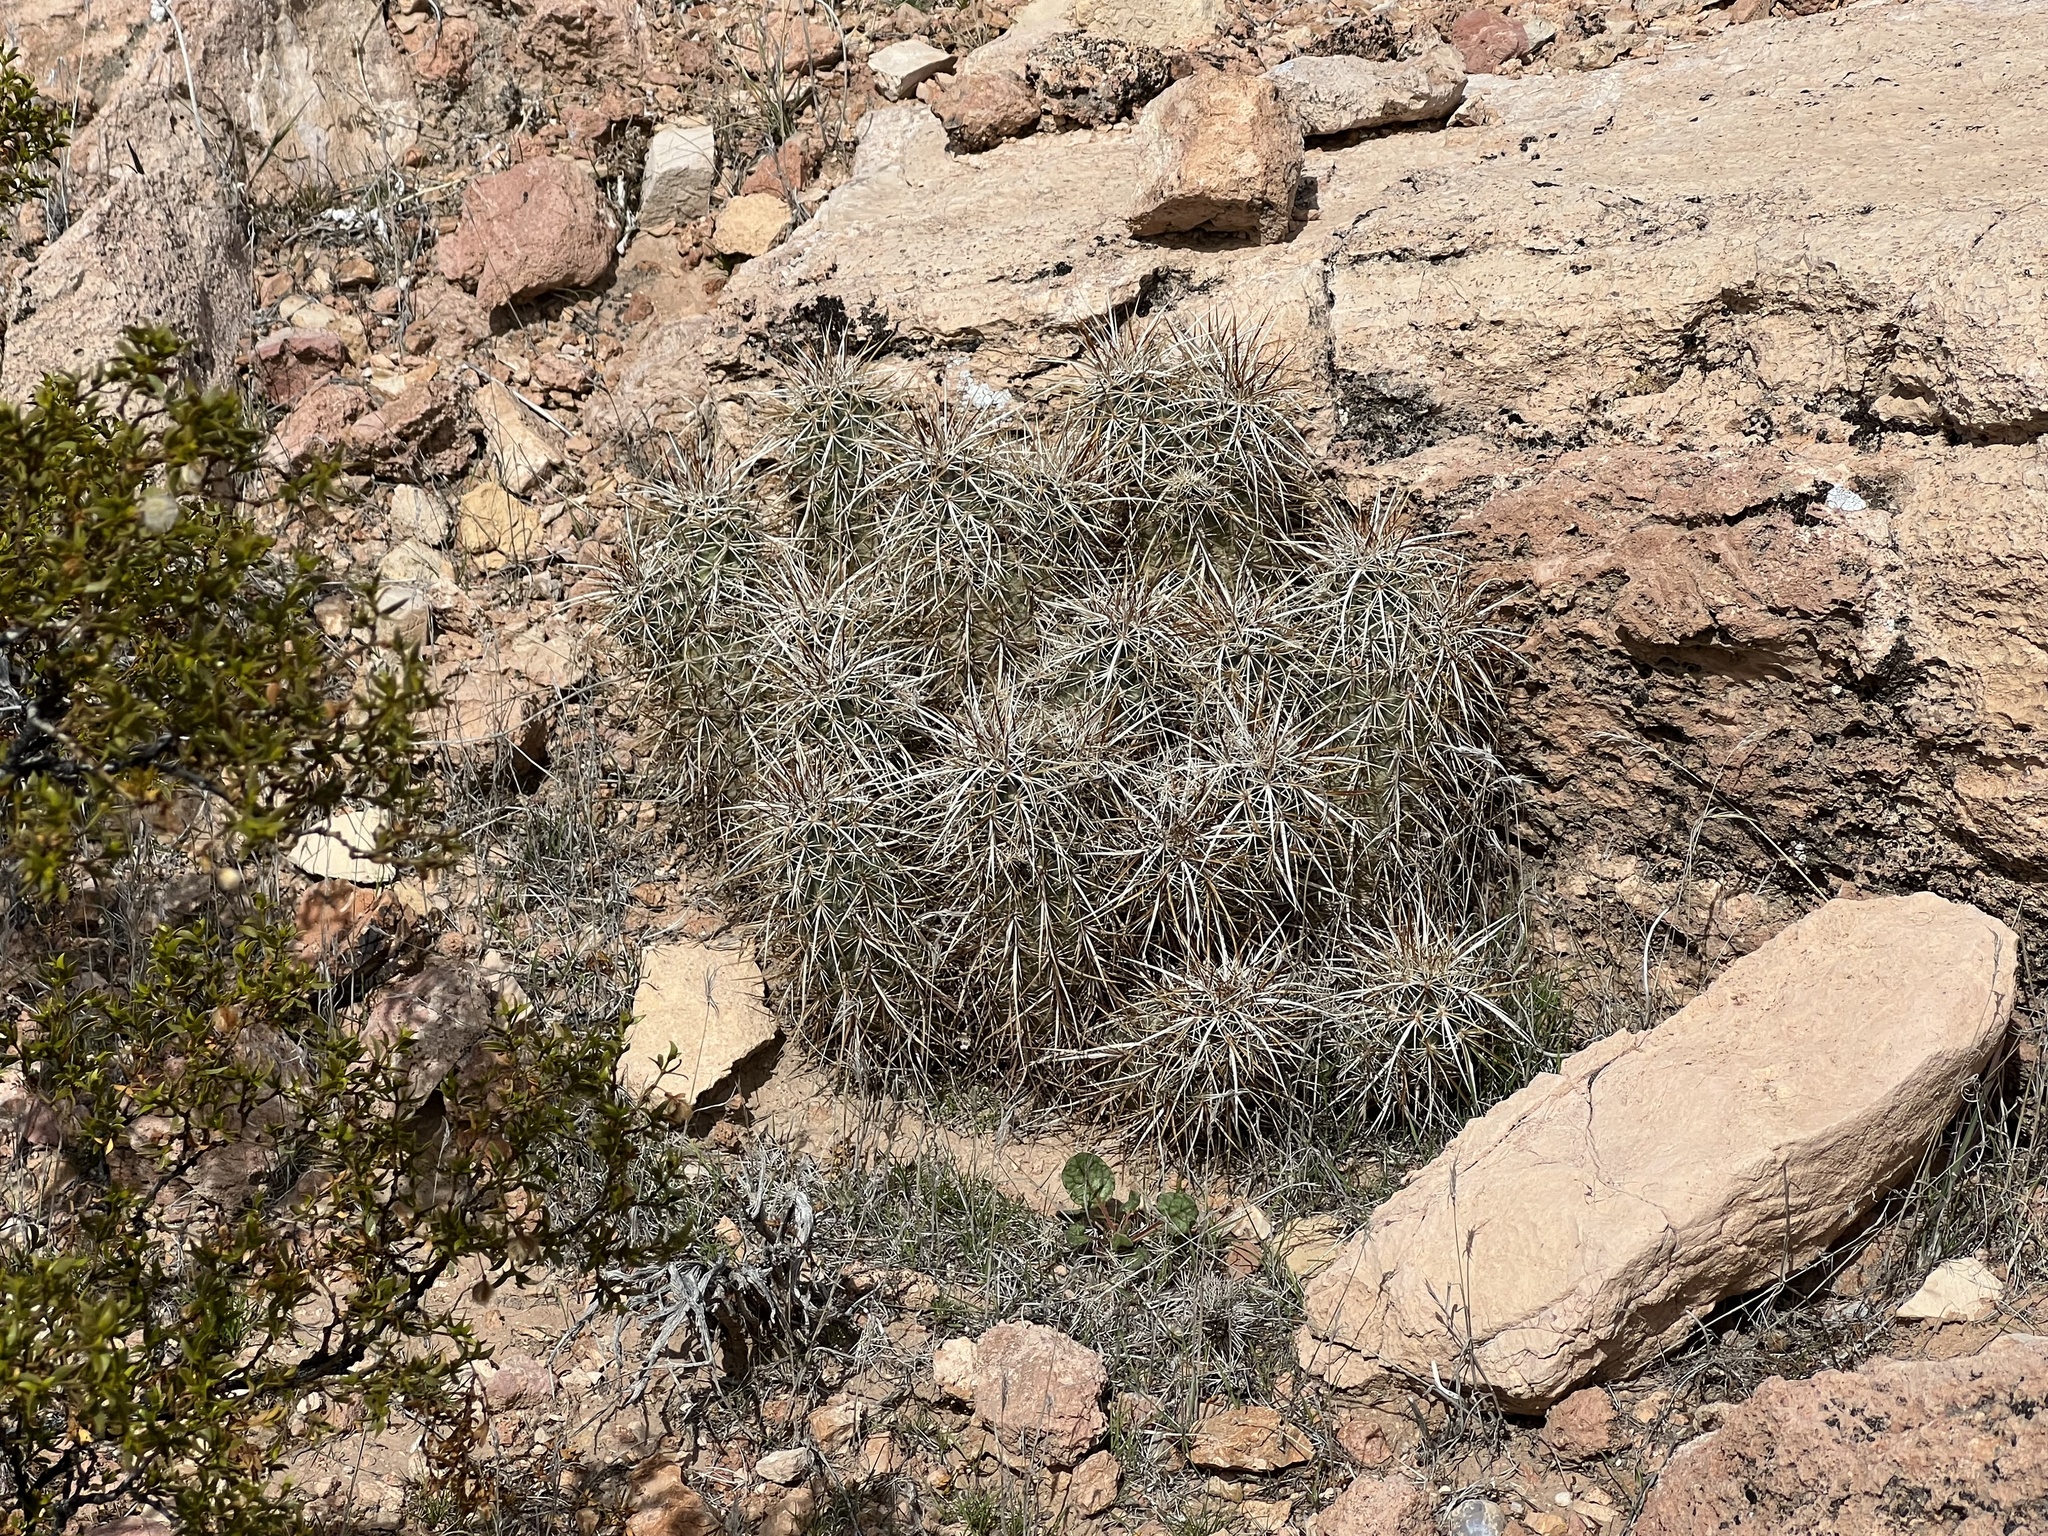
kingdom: Plantae
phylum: Tracheophyta
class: Magnoliopsida
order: Caryophyllales
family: Cactaceae
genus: Echinocereus
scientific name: Echinocereus engelmannii
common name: Engelmann's hedgehog cactus
